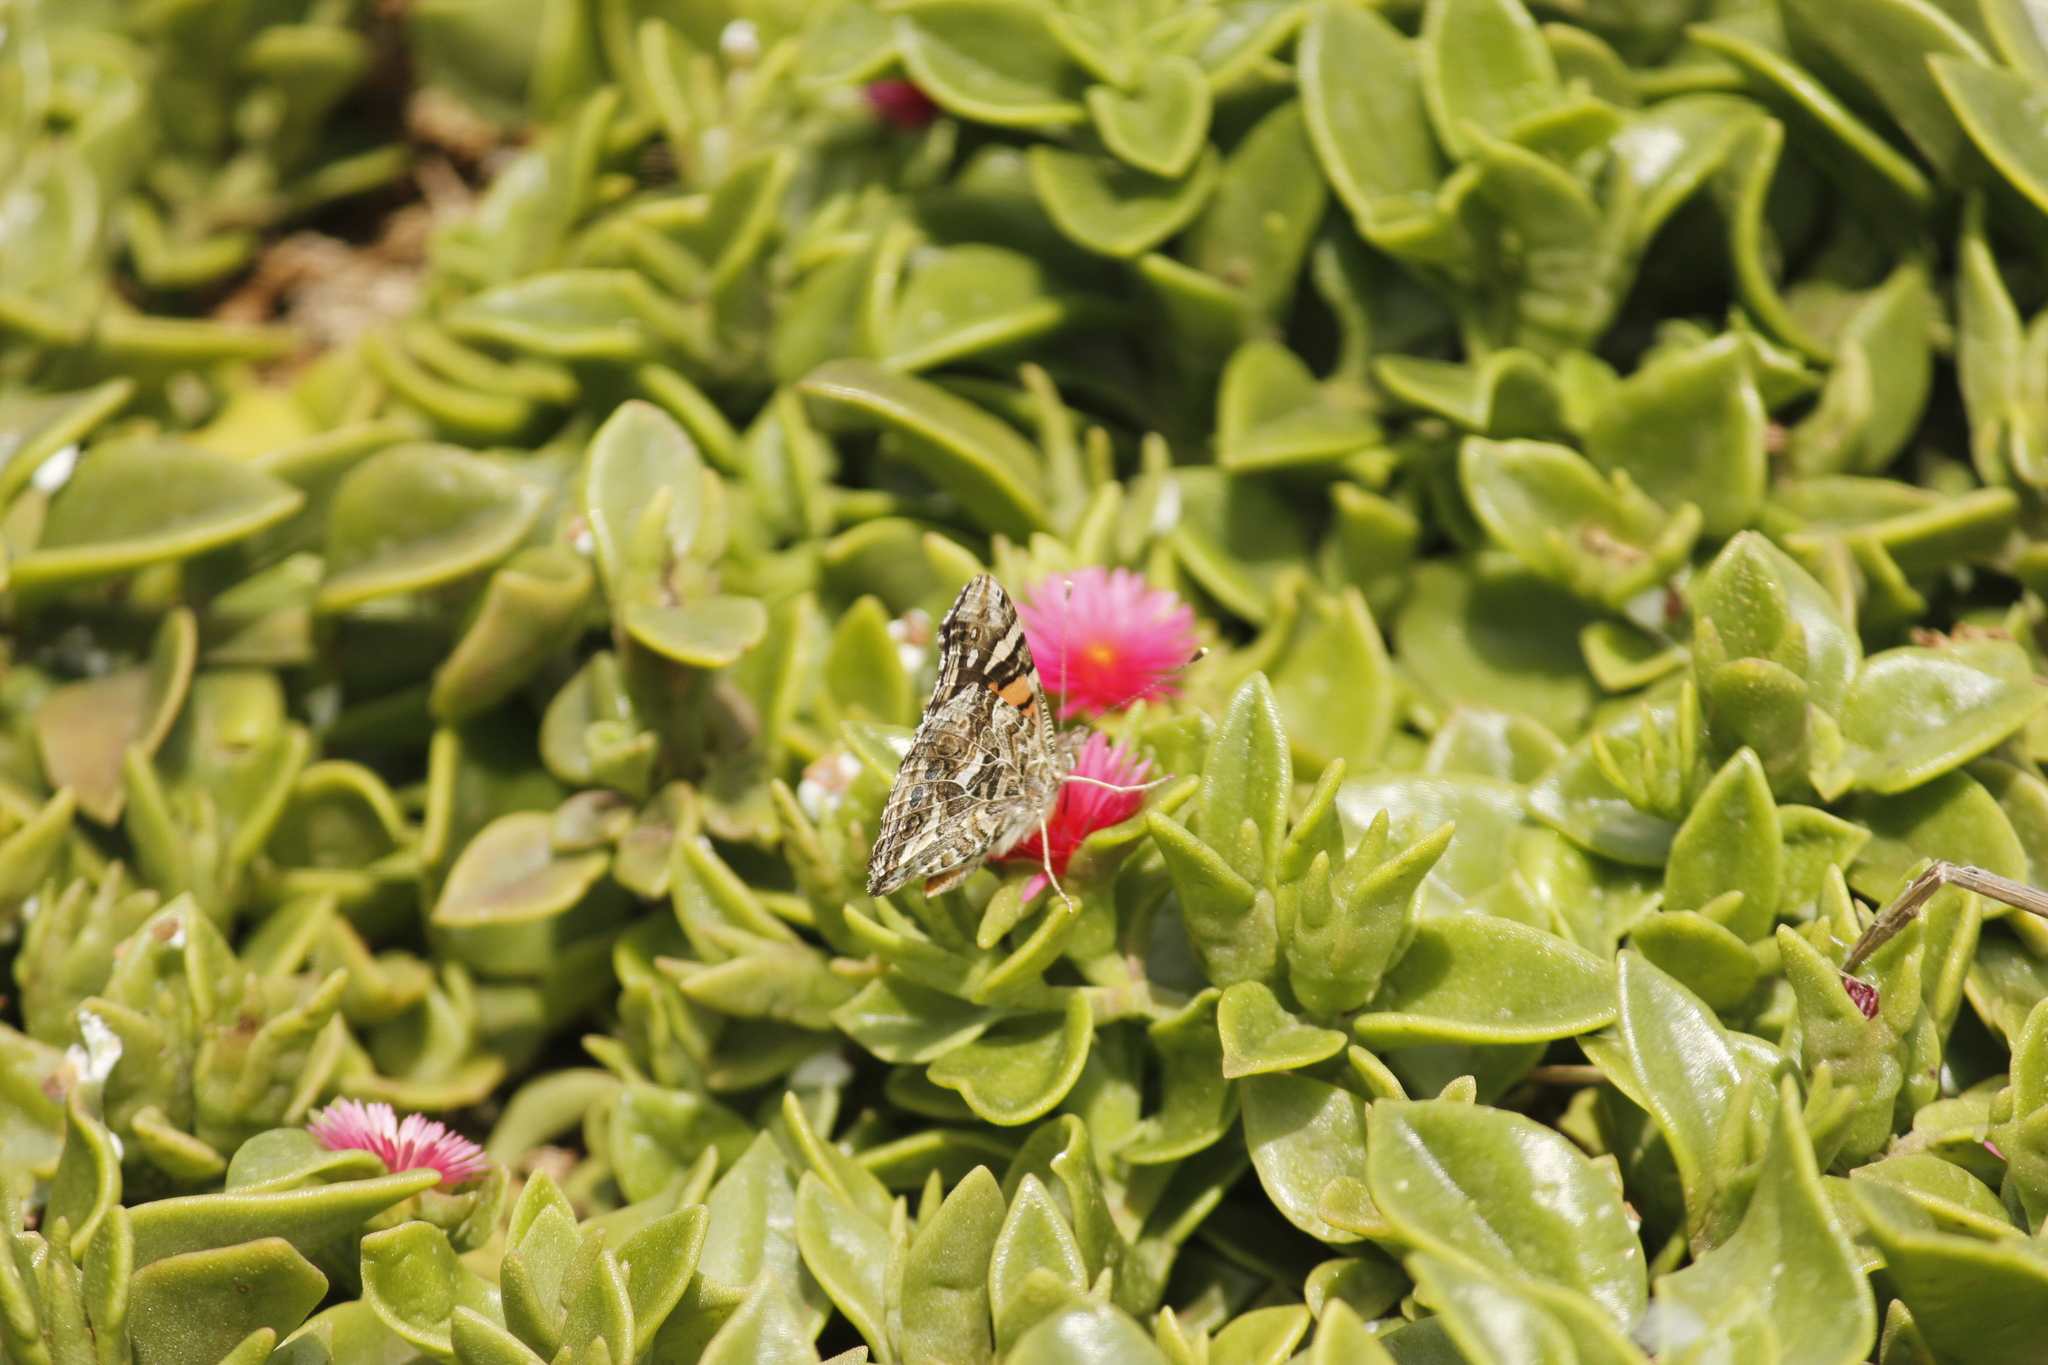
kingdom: Animalia
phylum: Arthropoda
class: Insecta
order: Lepidoptera
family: Nymphalidae
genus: Vanessa
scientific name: Vanessa carye
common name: Subtropical lady
